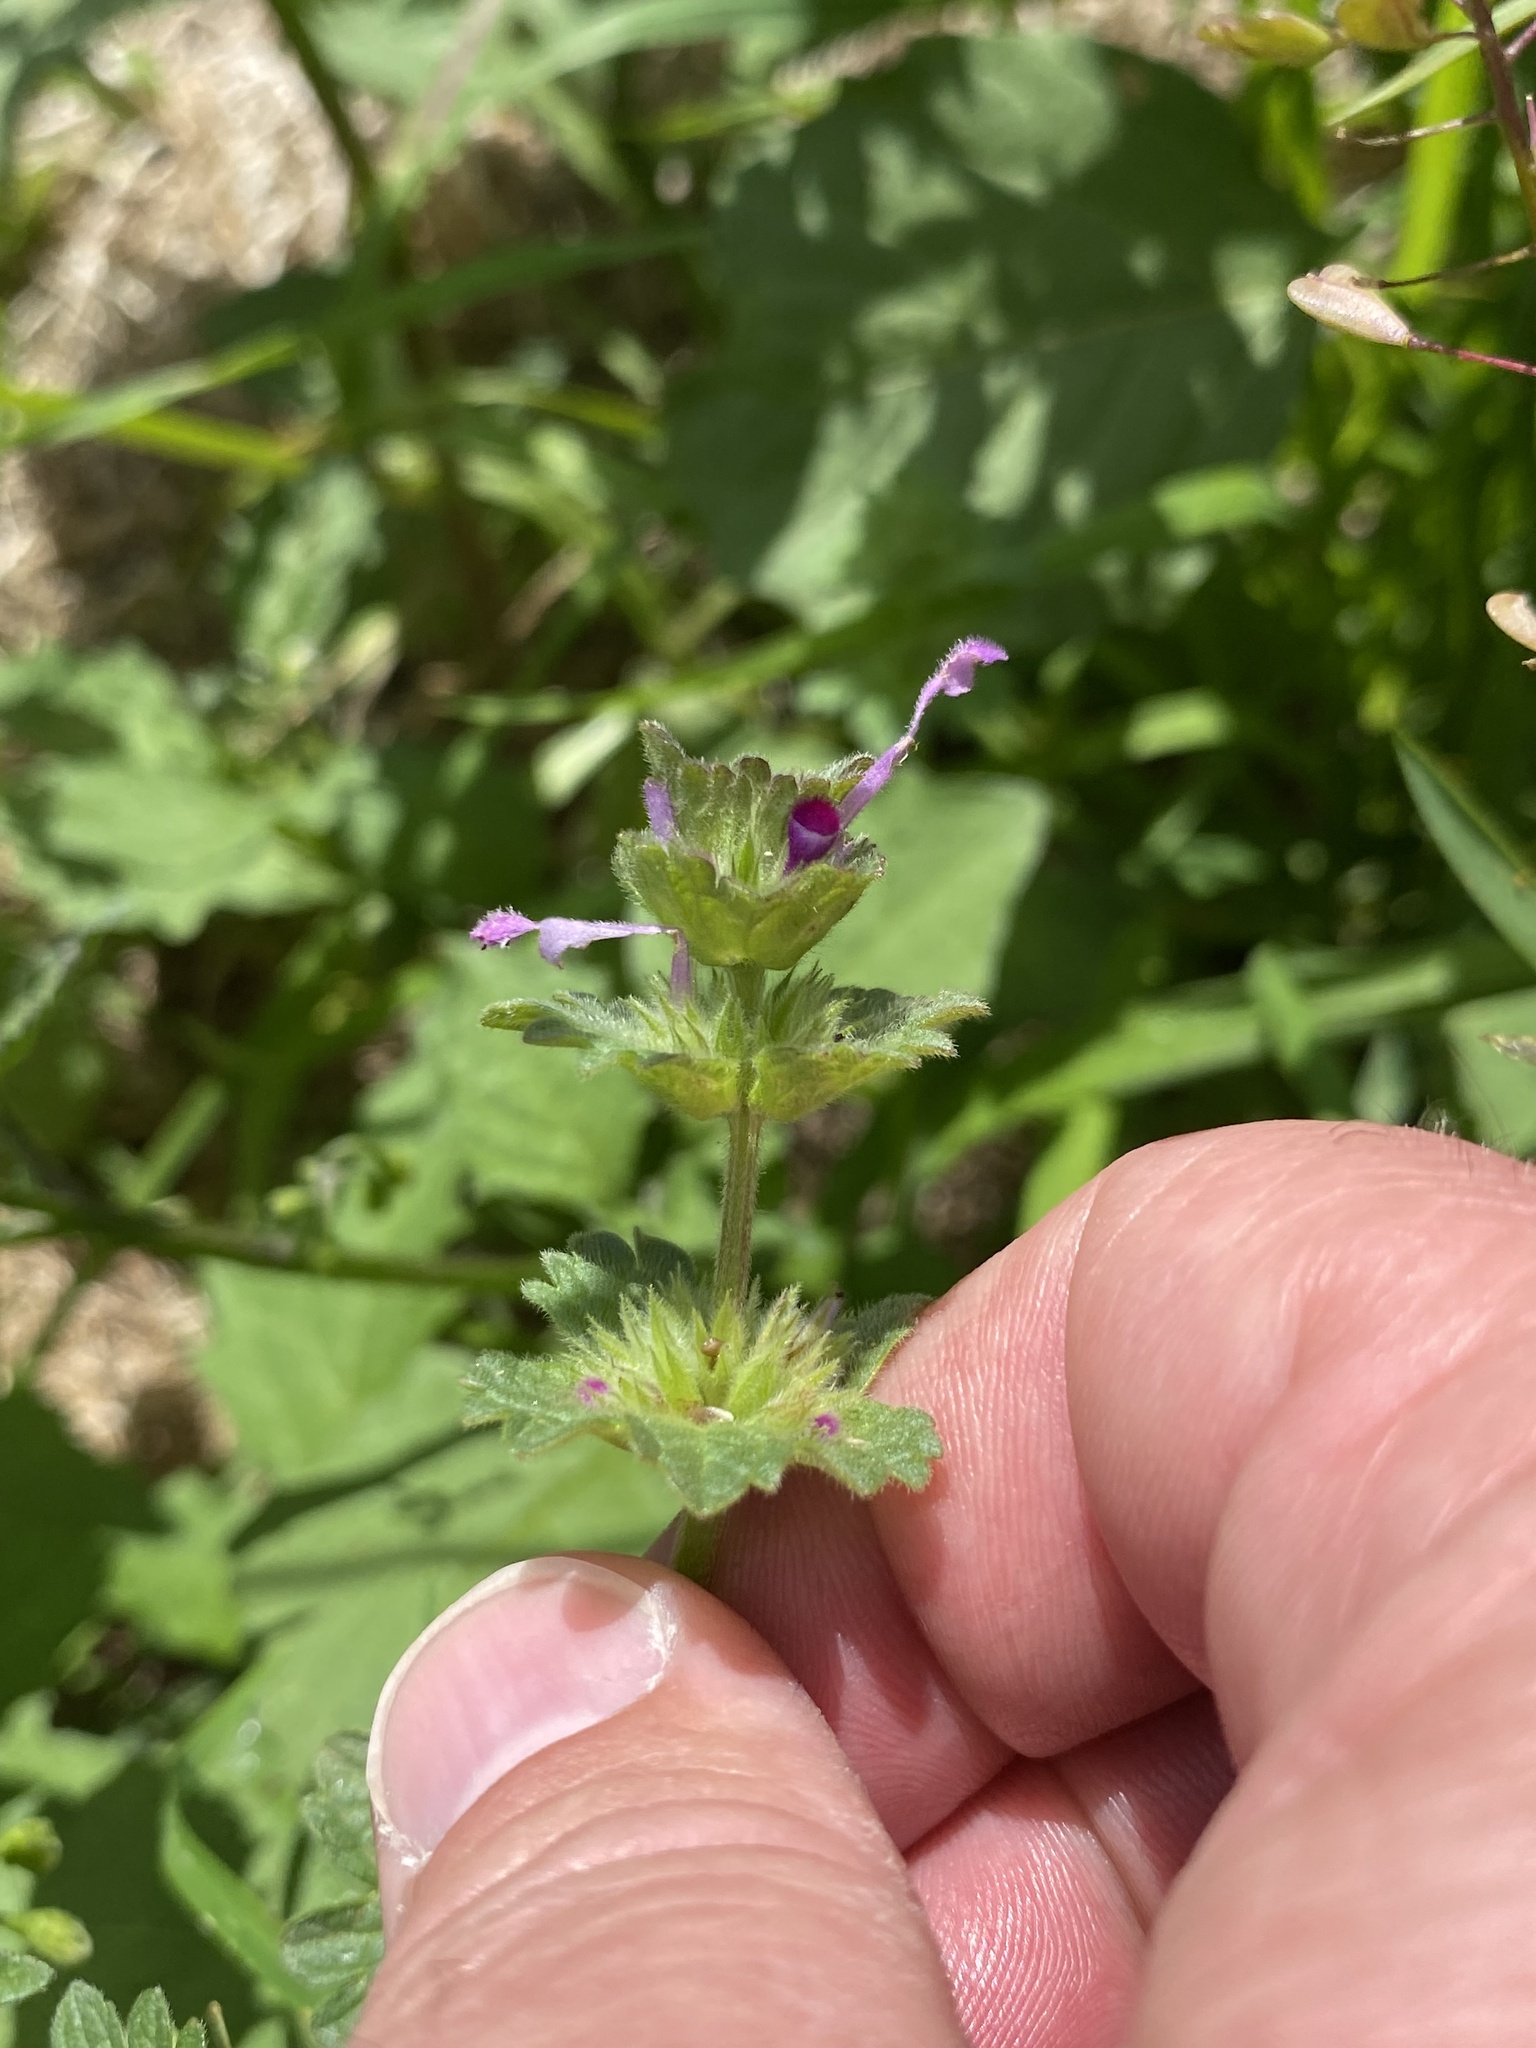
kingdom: Plantae
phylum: Tracheophyta
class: Magnoliopsida
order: Lamiales
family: Lamiaceae
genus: Lamium
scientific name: Lamium amplexicaule
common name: Henbit dead-nettle
